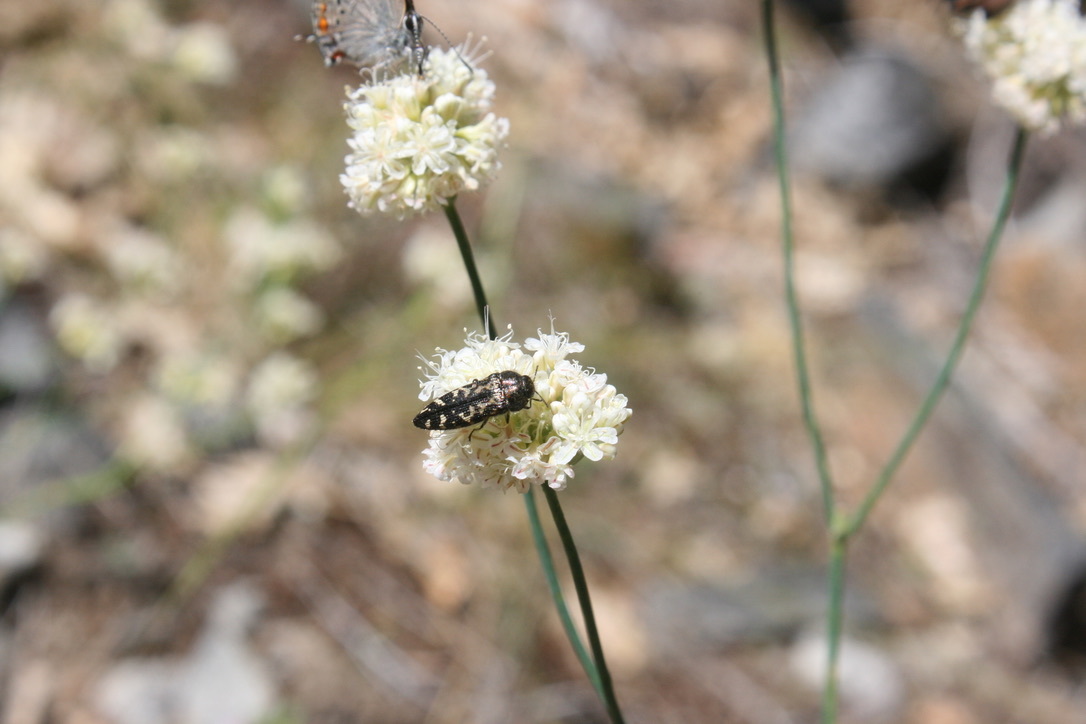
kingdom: Animalia
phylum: Arthropoda
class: Insecta
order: Coleoptera
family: Buprestidae
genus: Acmaeodera
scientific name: Acmaeodera connexa
